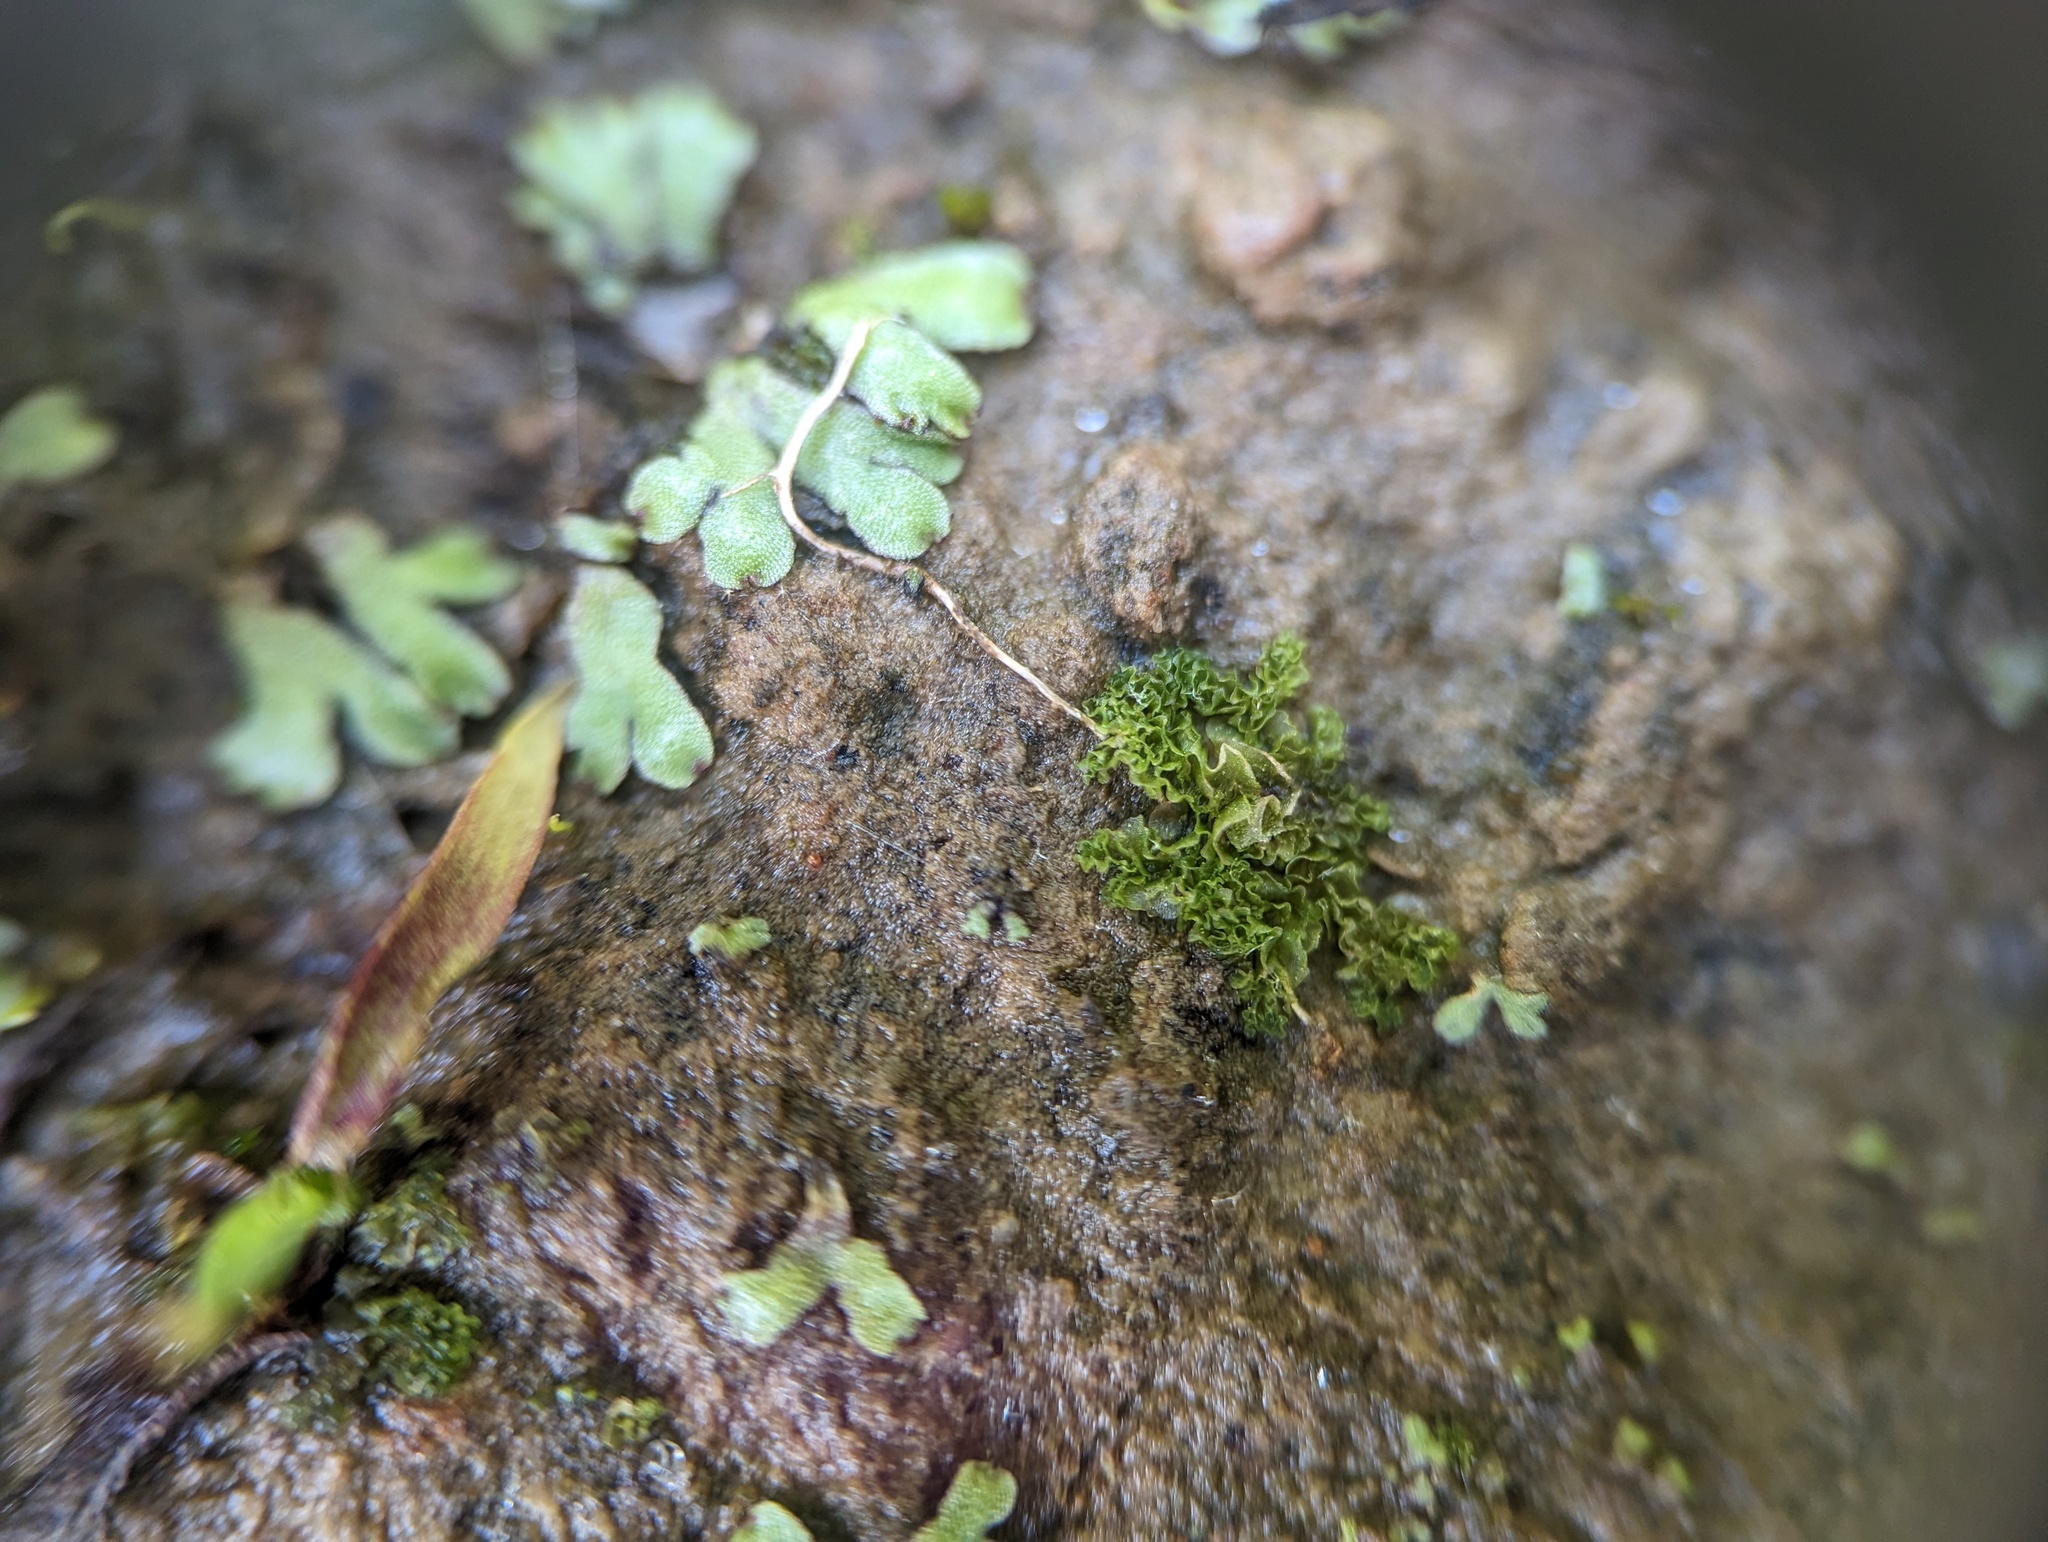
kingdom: Plantae
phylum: Marchantiophyta
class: Jungermanniopsida
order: Fossombroniales
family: Fossombroniaceae
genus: Fossombronia
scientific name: Fossombronia foveolata
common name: Pitted frillwort
